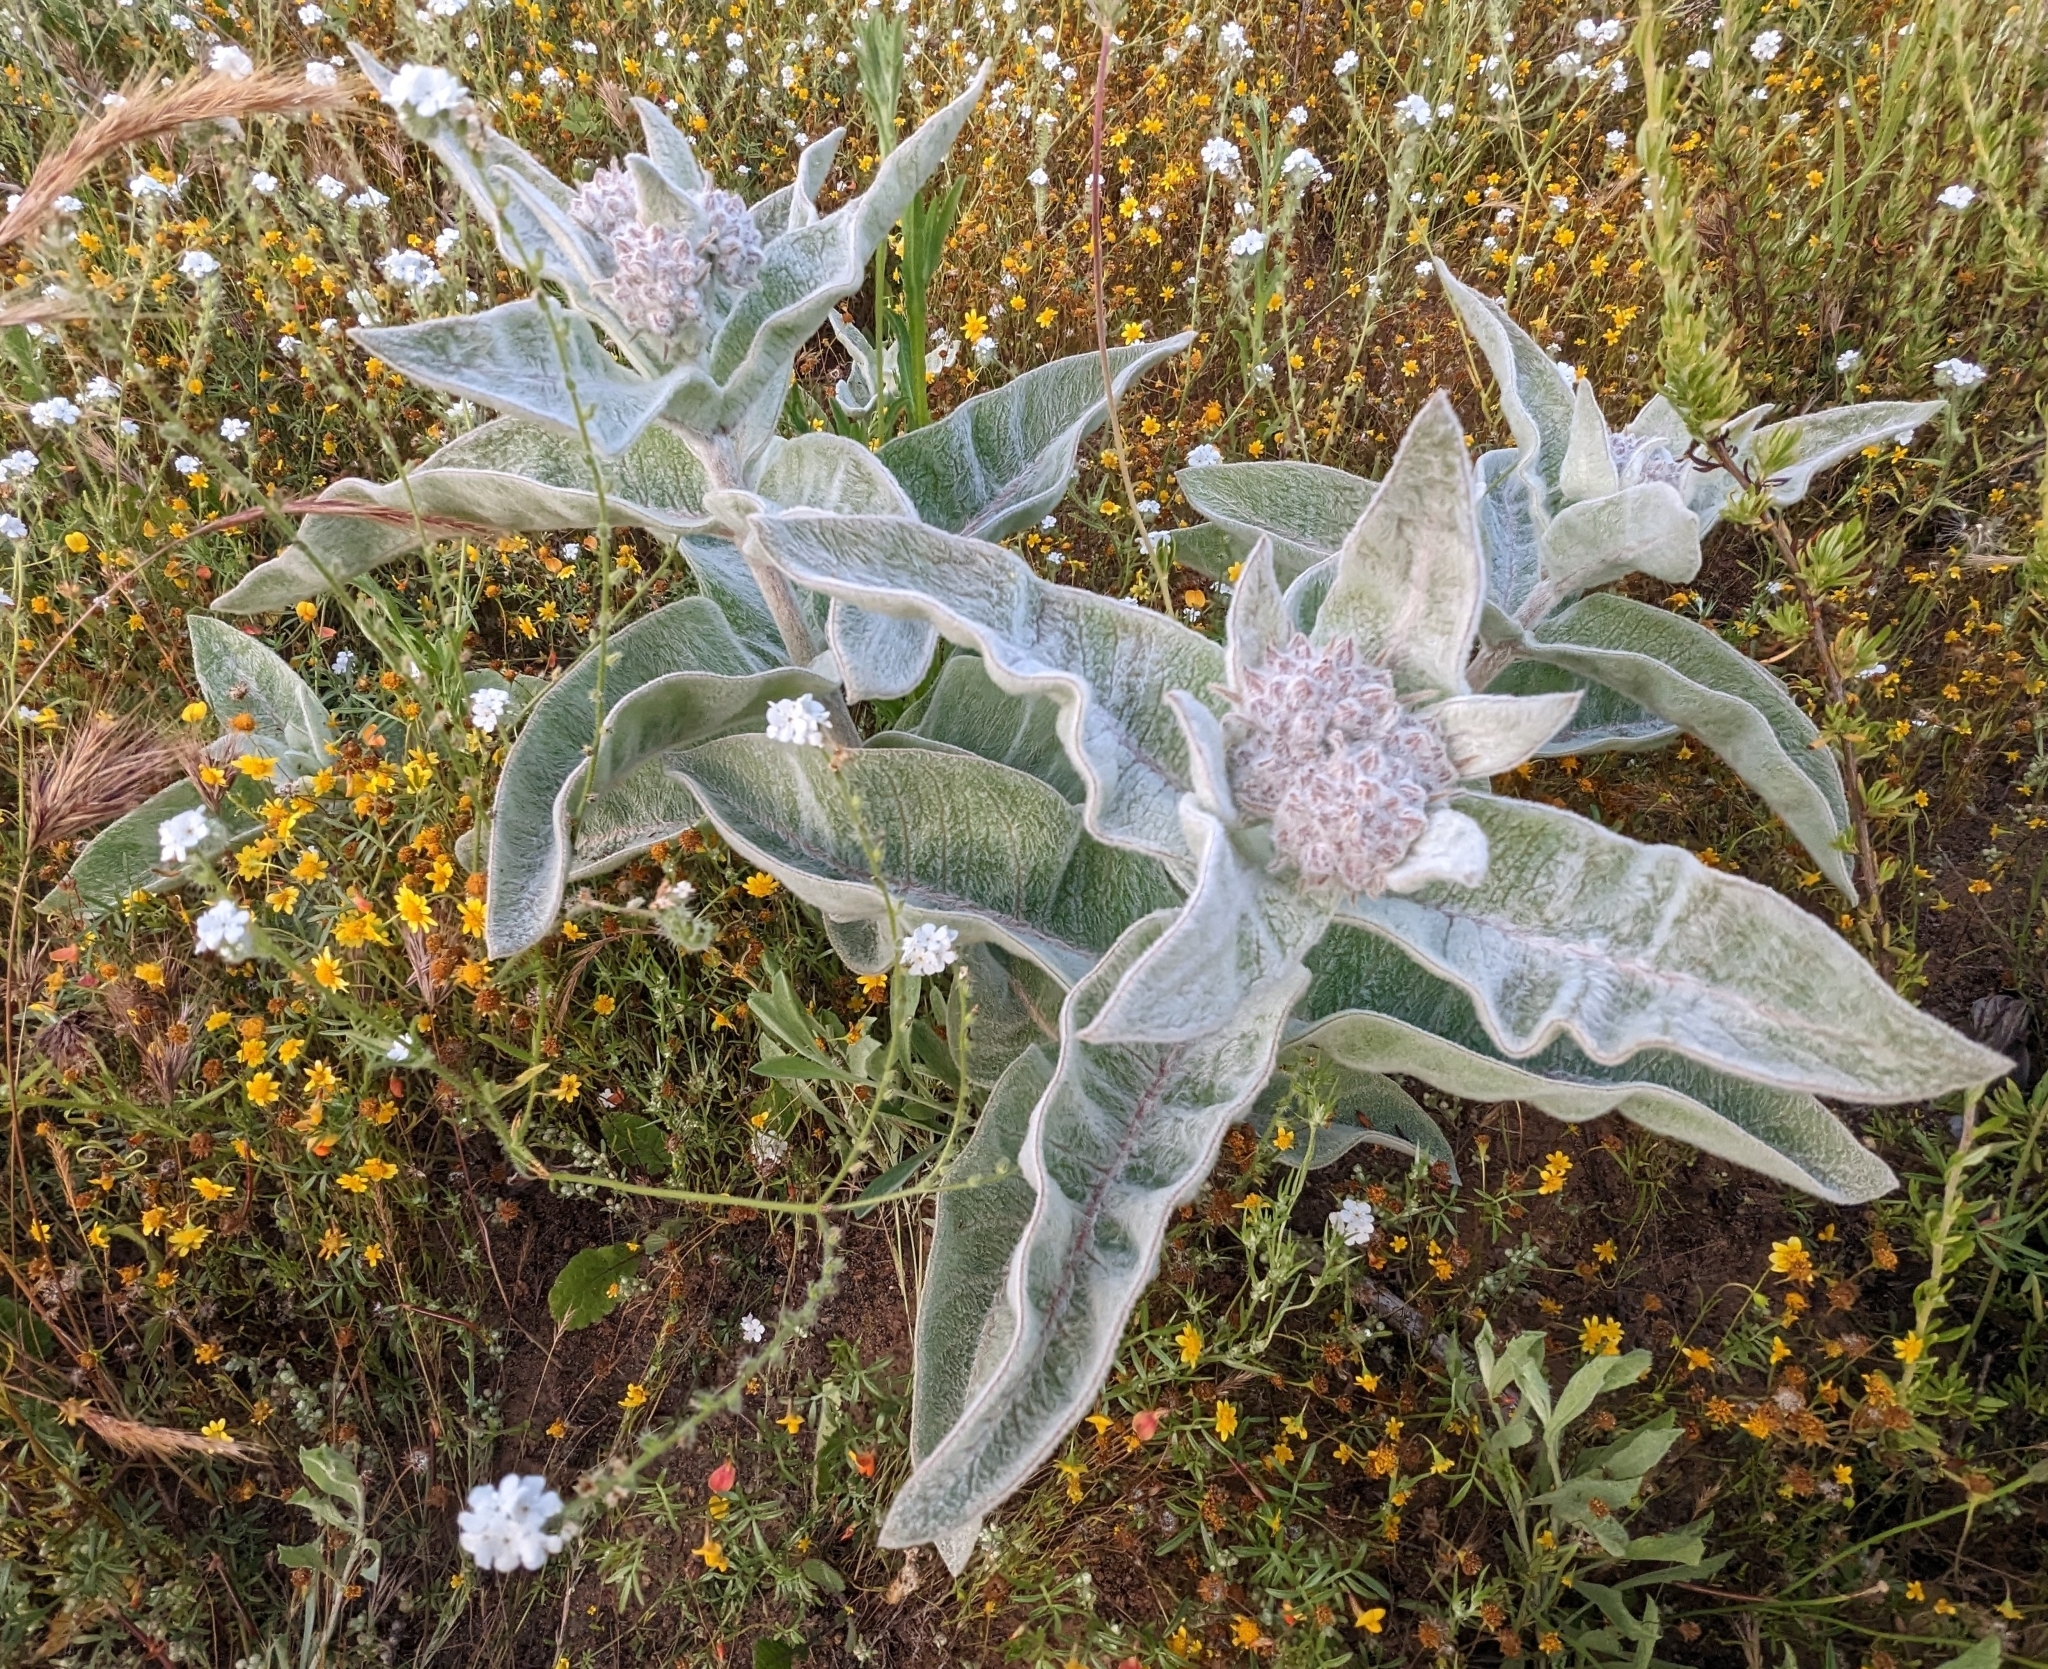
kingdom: Plantae
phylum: Tracheophyta
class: Magnoliopsida
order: Gentianales
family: Apocynaceae
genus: Asclepias
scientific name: Asclepias eriocarpa
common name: Indian milkweed
